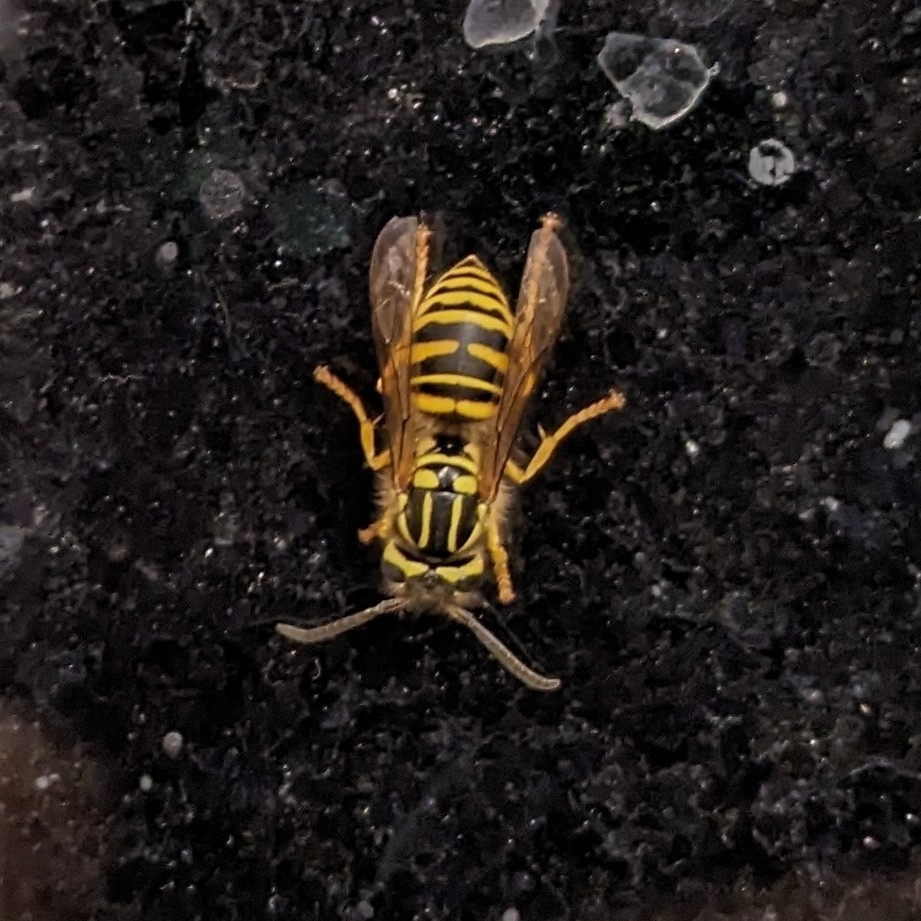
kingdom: Animalia
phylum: Arthropoda
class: Insecta
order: Hymenoptera
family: Vespidae
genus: Vespula
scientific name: Vespula squamosa
